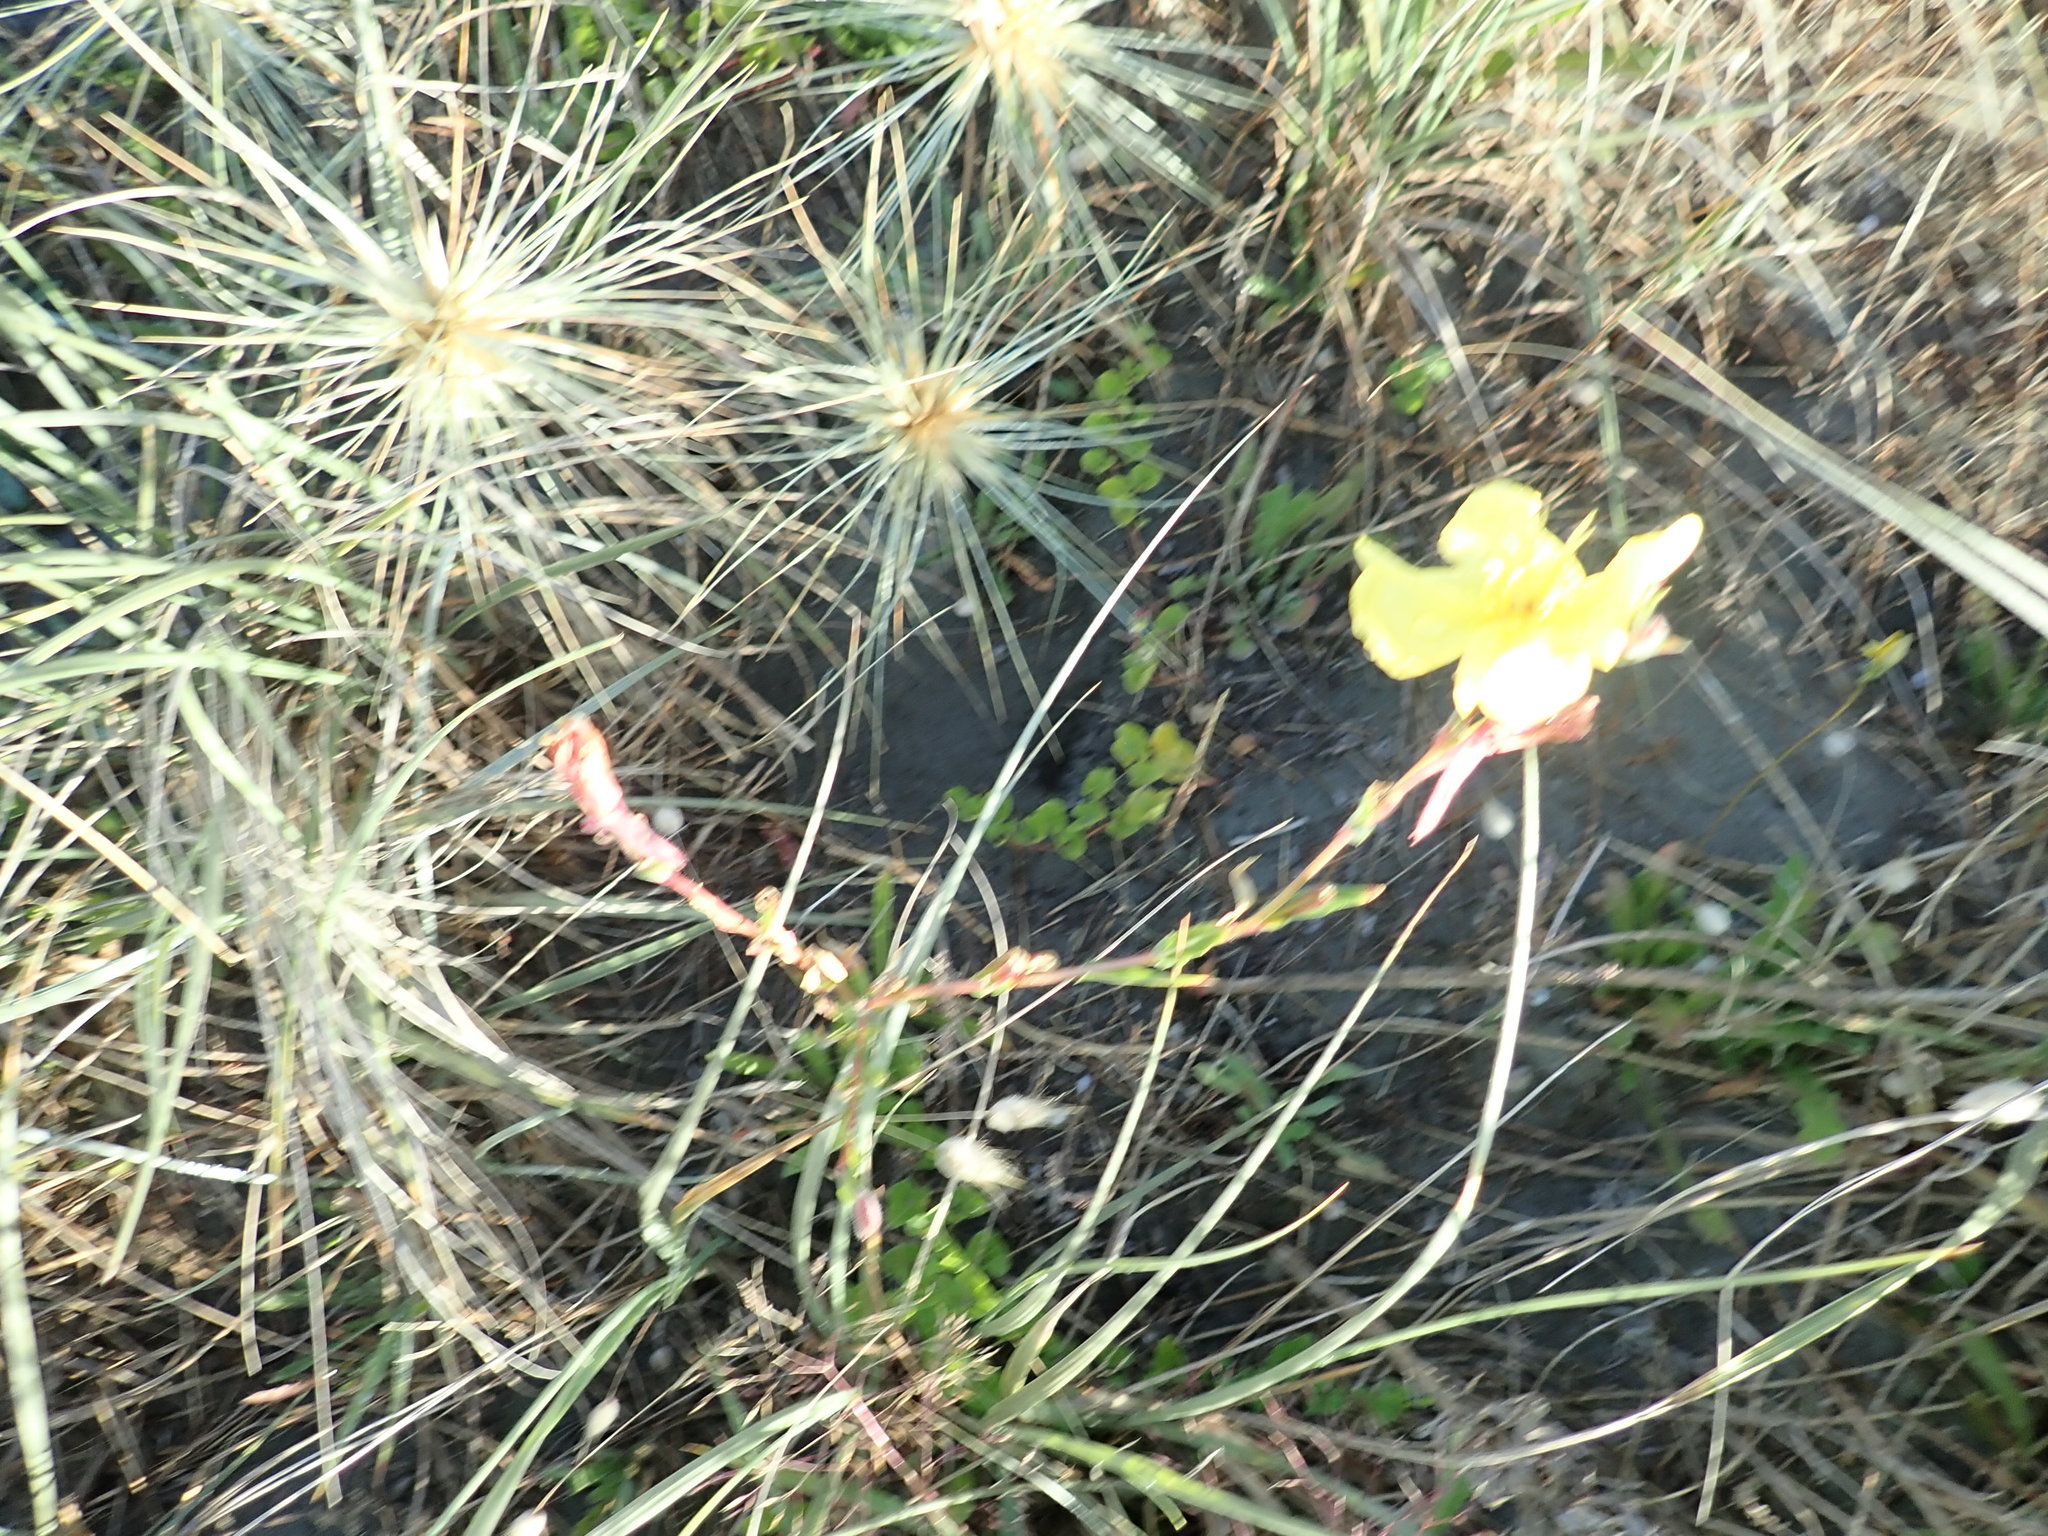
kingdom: Plantae
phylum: Tracheophyta
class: Magnoliopsida
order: Myrtales
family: Onagraceae
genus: Oenothera
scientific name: Oenothera stricta
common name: Fragrant evening-primrose
